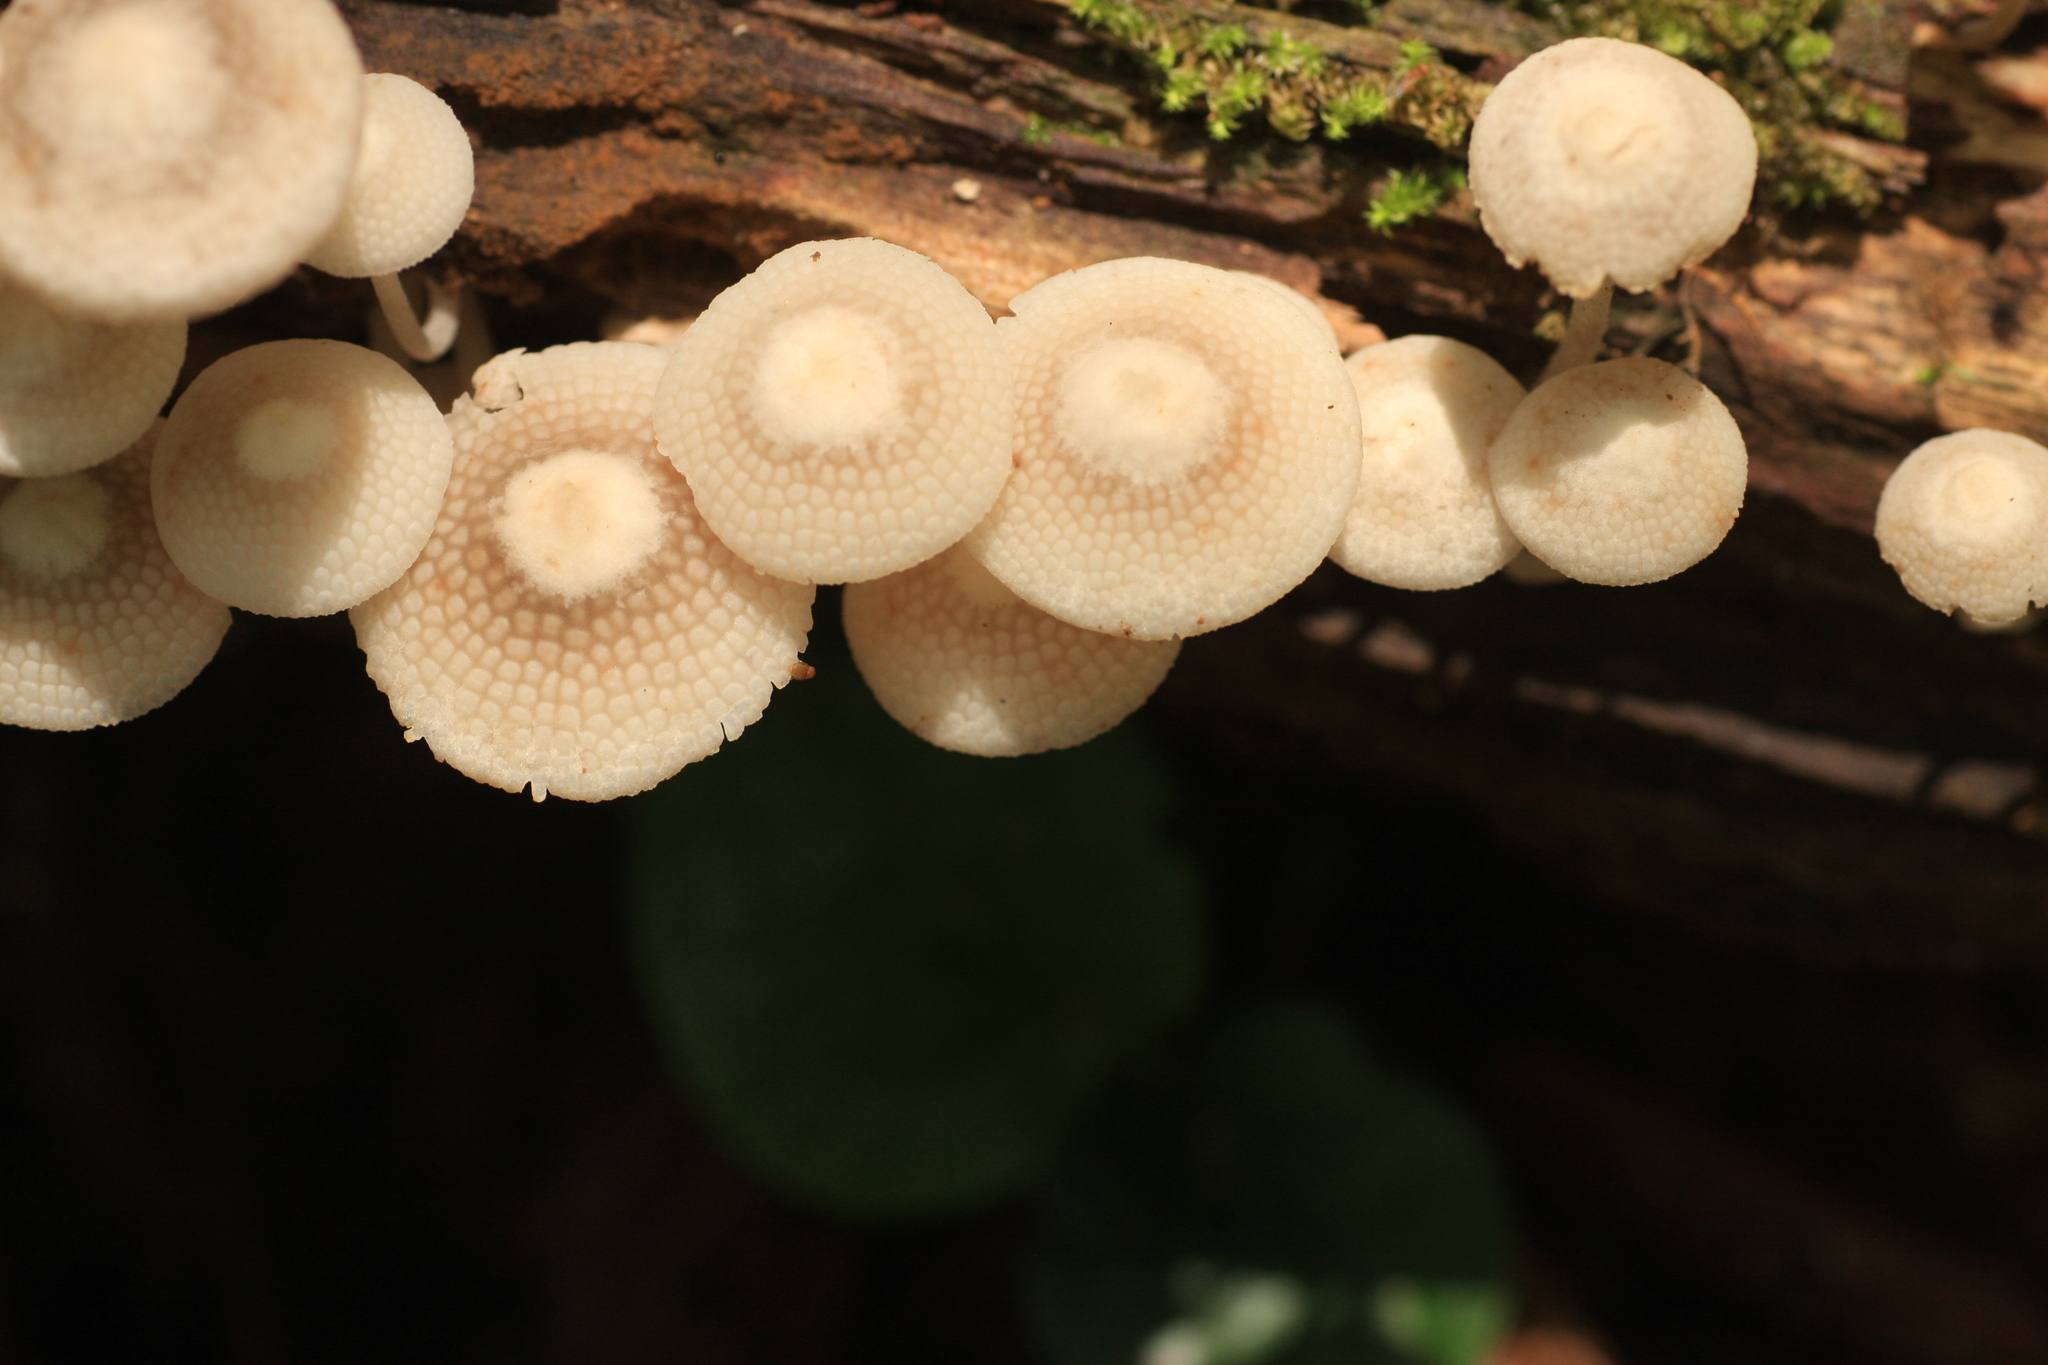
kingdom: Fungi
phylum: Basidiomycota
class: Agaricomycetes
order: Agaricales
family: Mycenaceae
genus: Filoboletus
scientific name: Filoboletus manipularis
